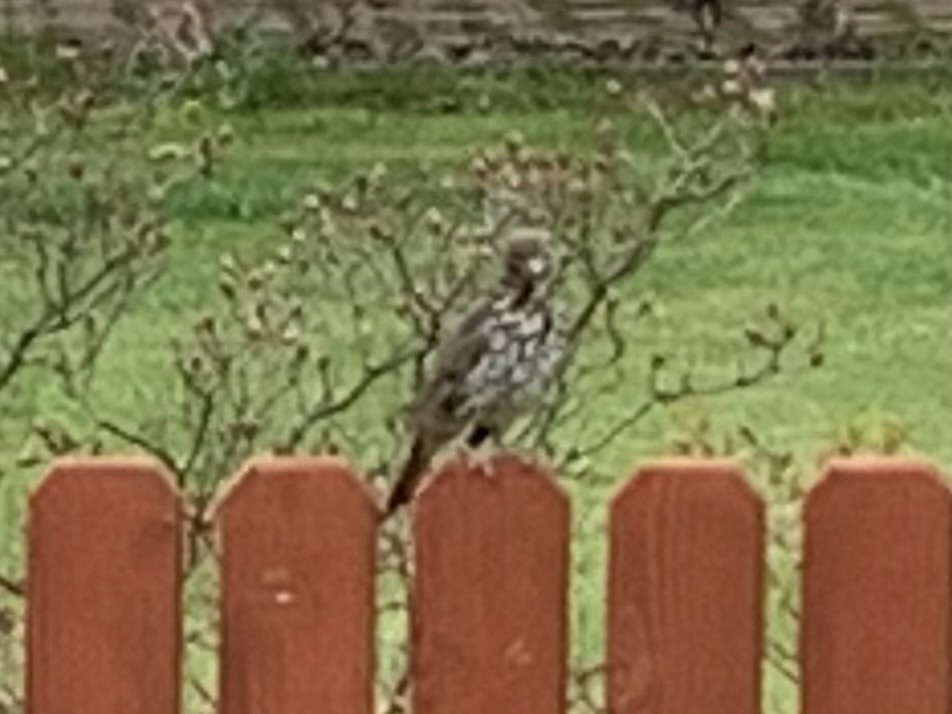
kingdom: Animalia
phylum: Chordata
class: Aves
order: Passeriformes
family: Turdidae
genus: Turdus
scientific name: Turdus philomelos
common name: Song thrush
